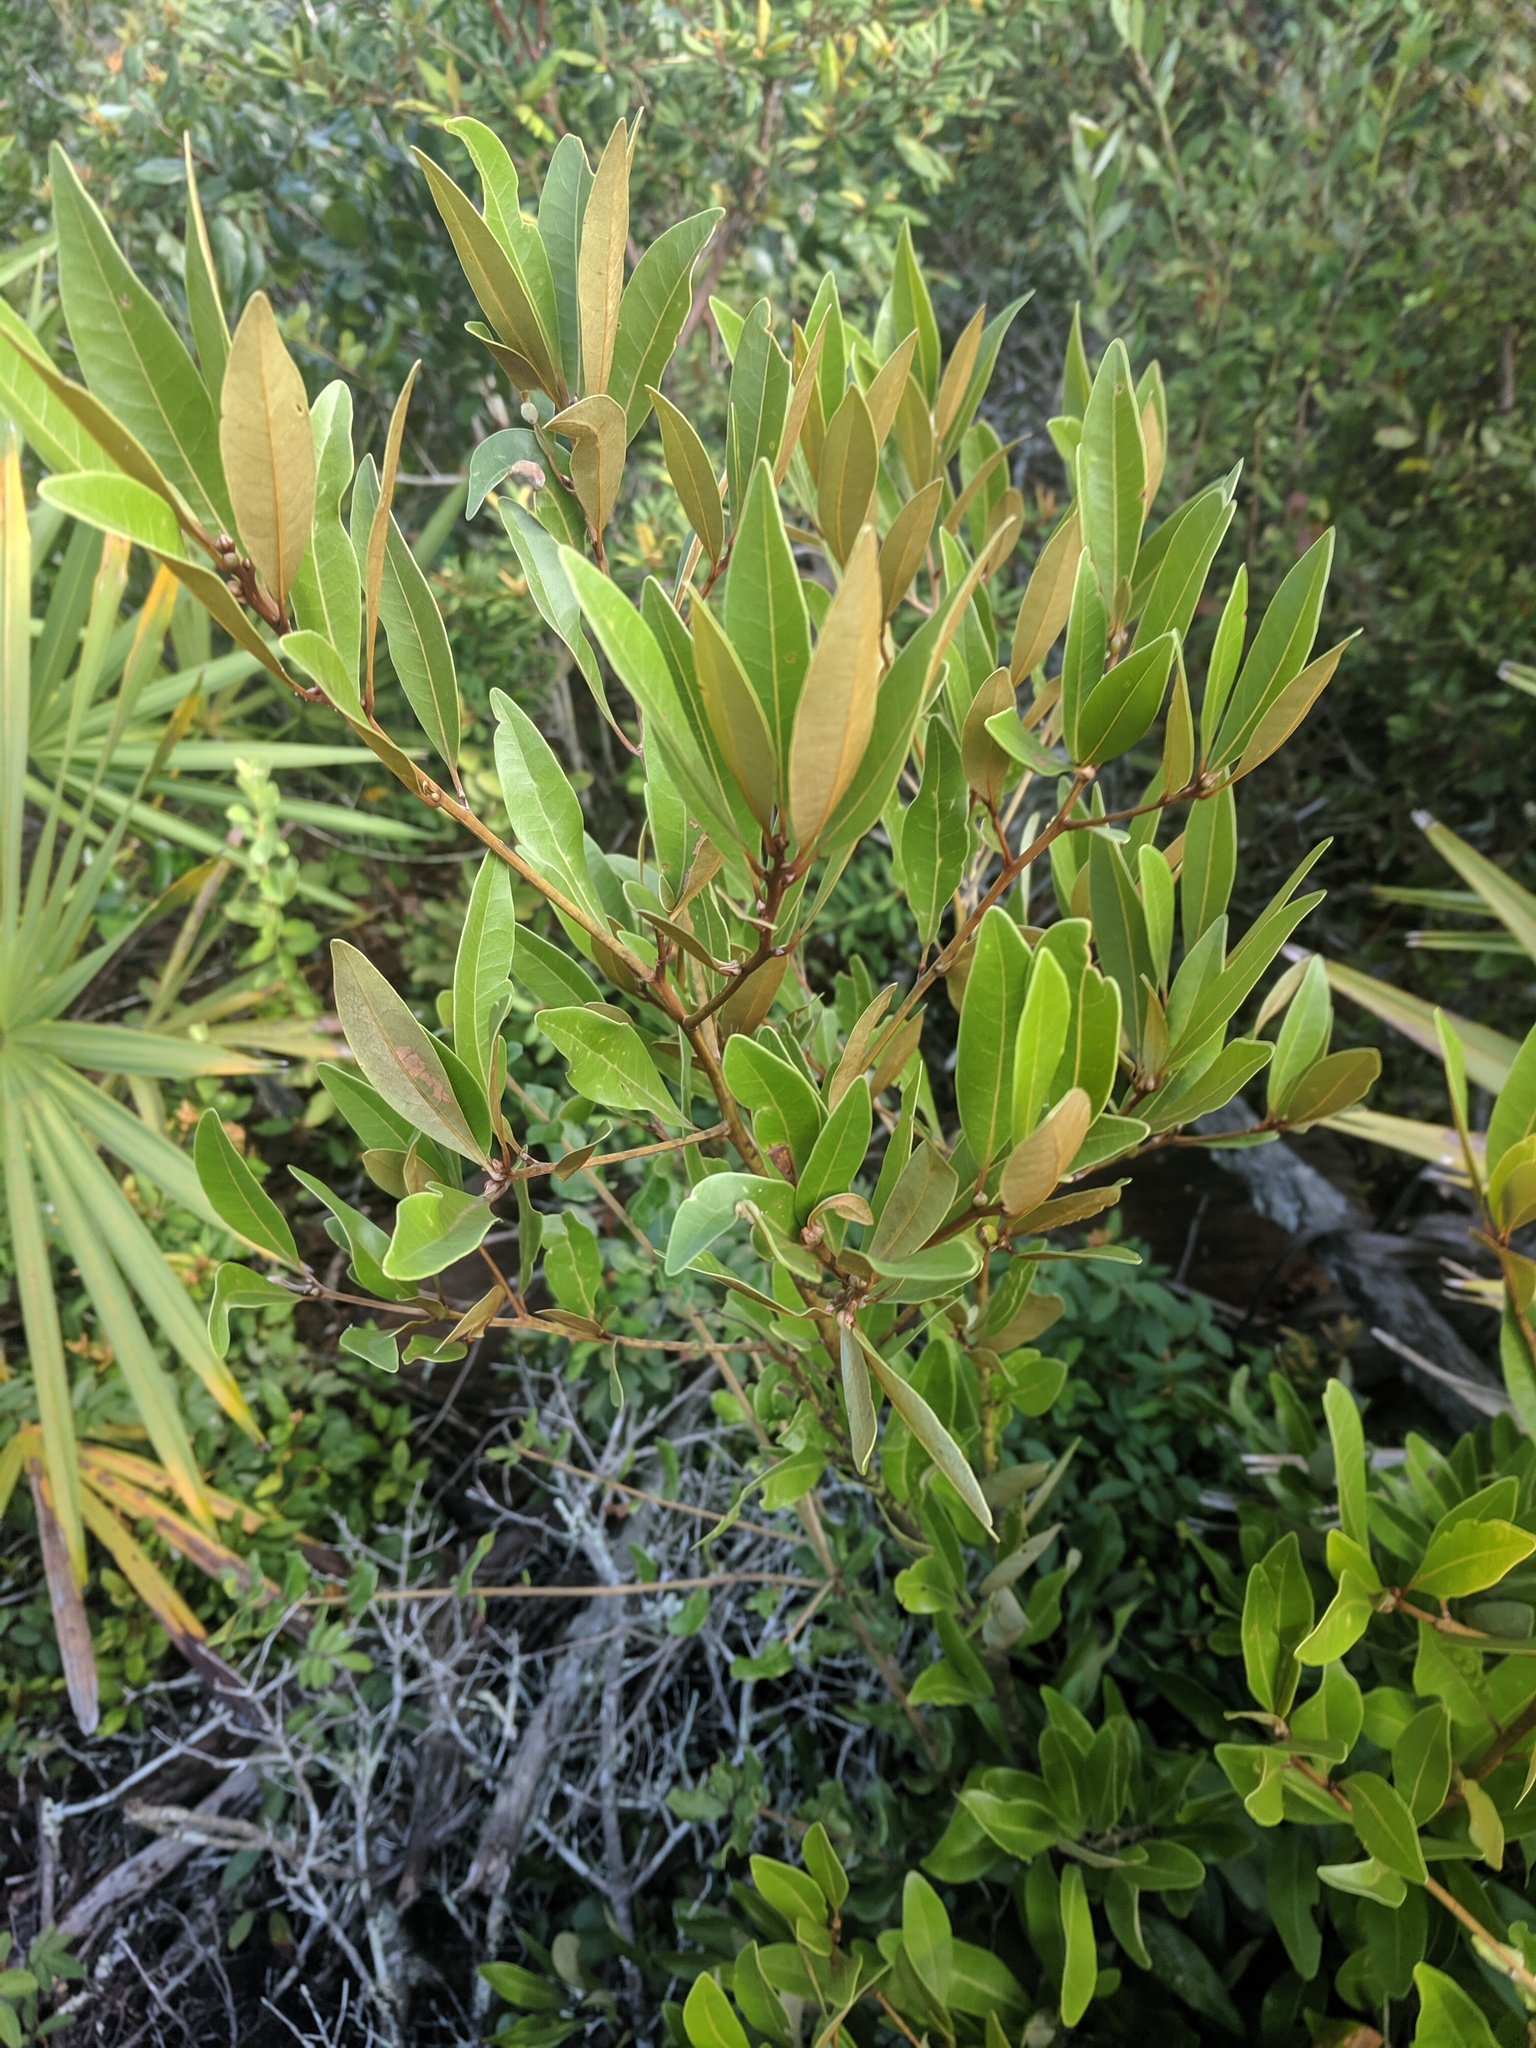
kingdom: Plantae
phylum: Tracheophyta
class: Magnoliopsida
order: Laurales
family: Lauraceae
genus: Persea
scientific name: Persea humilis
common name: Silkbay
